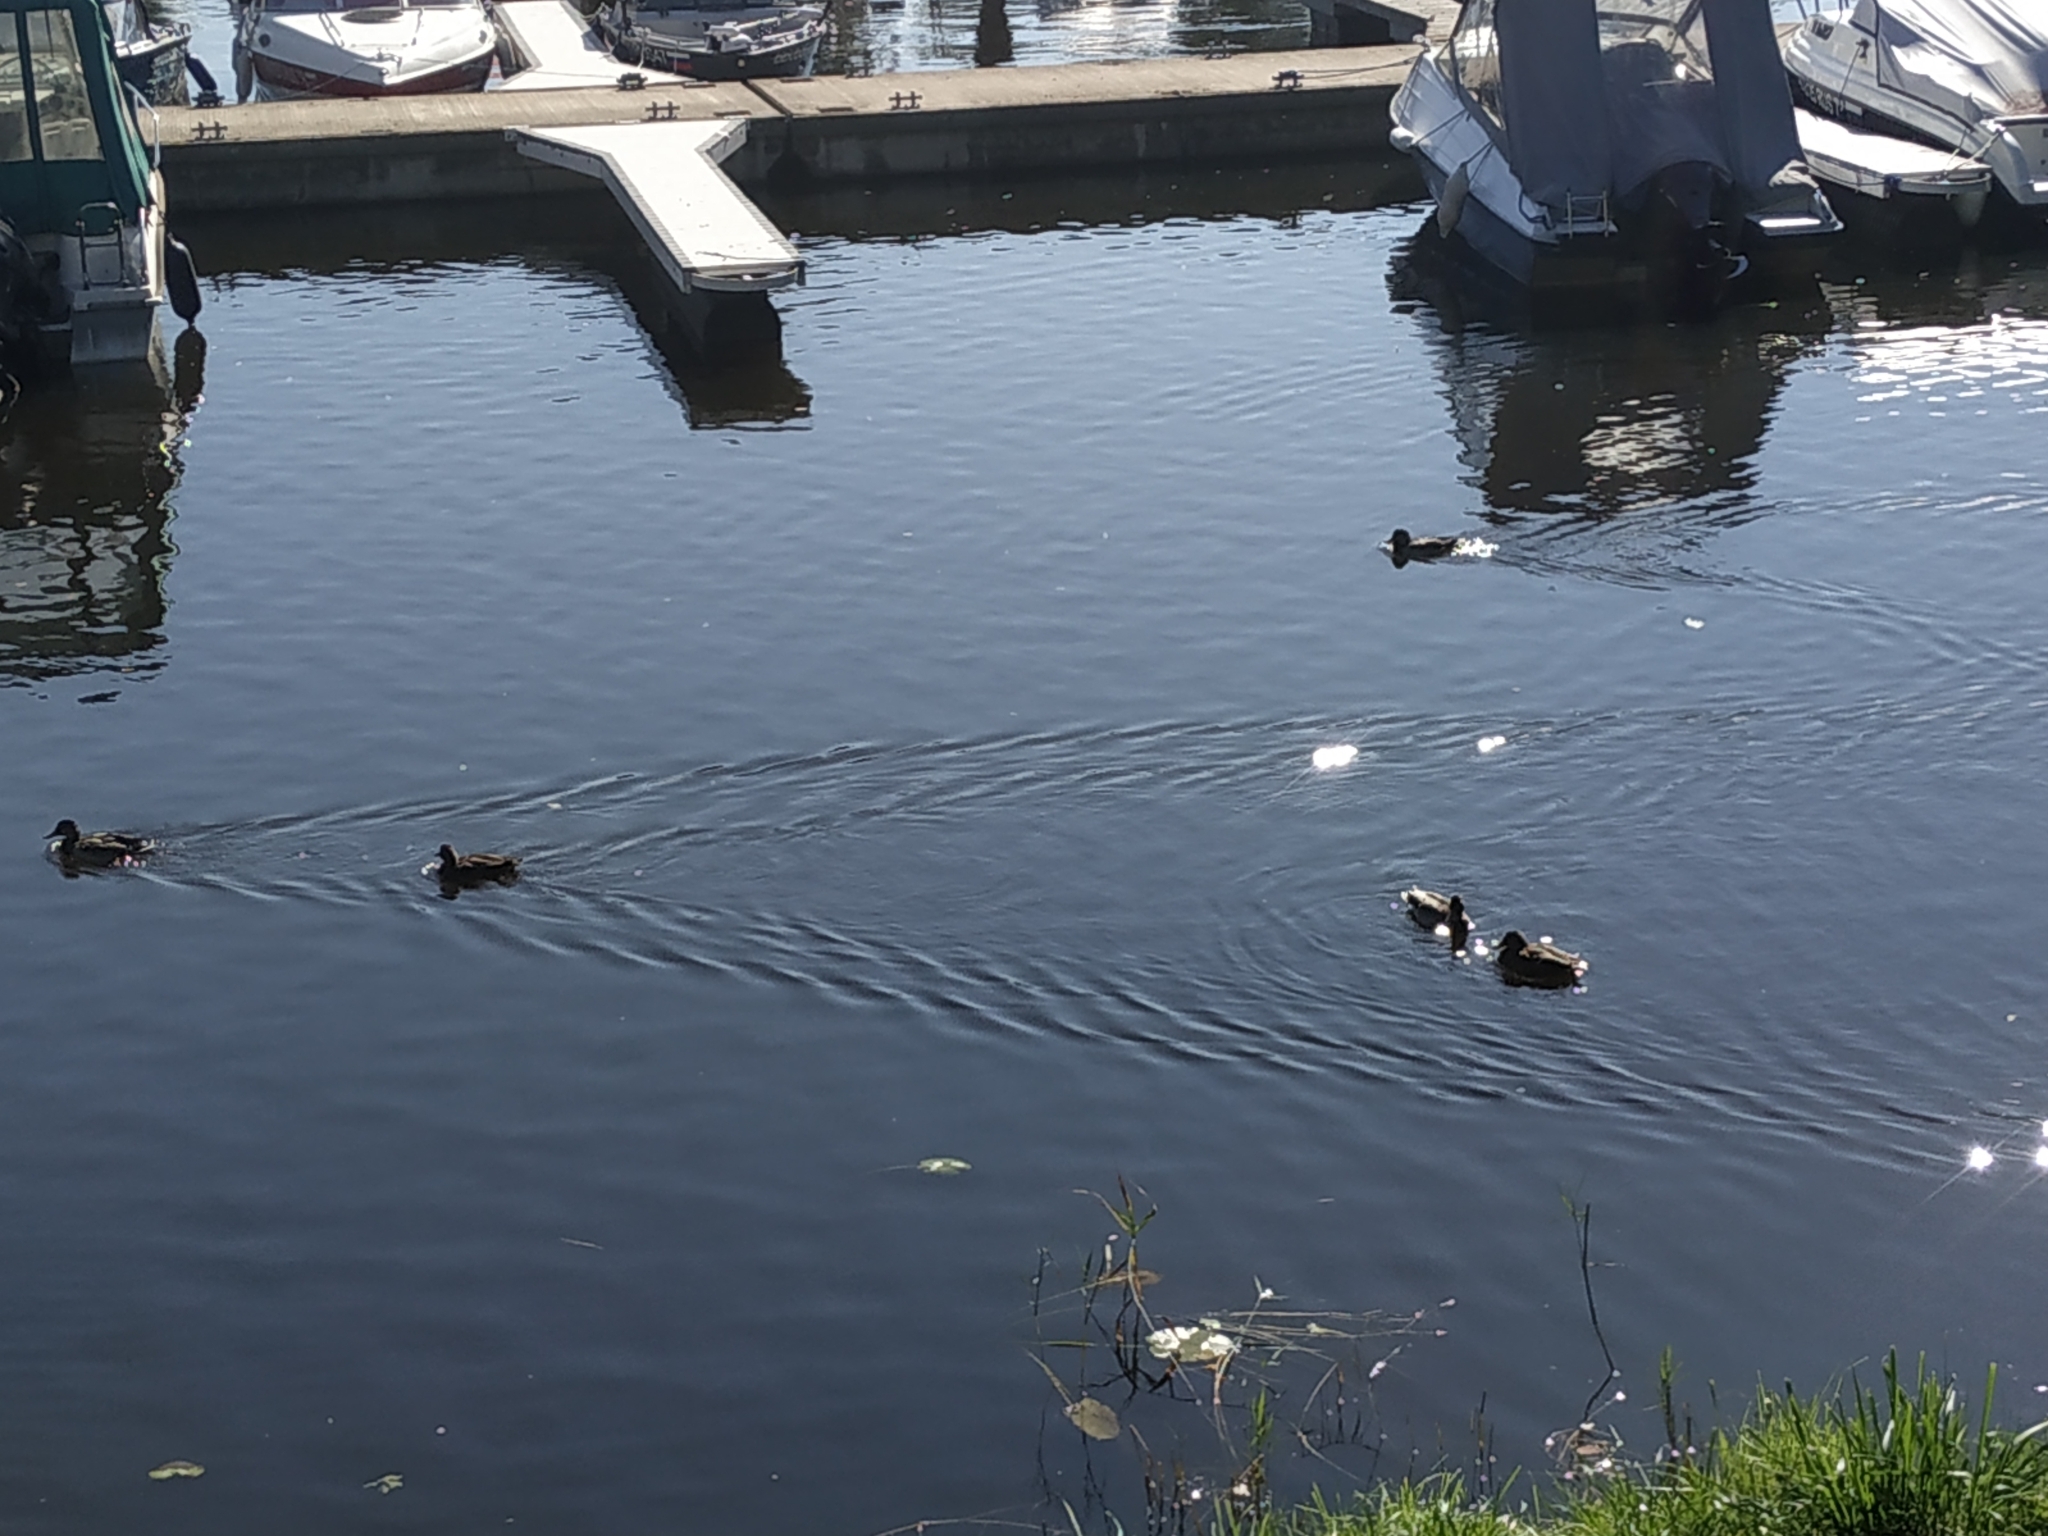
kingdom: Animalia
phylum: Chordata
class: Aves
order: Anseriformes
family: Anatidae
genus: Anas
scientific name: Anas platyrhynchos
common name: Mallard
